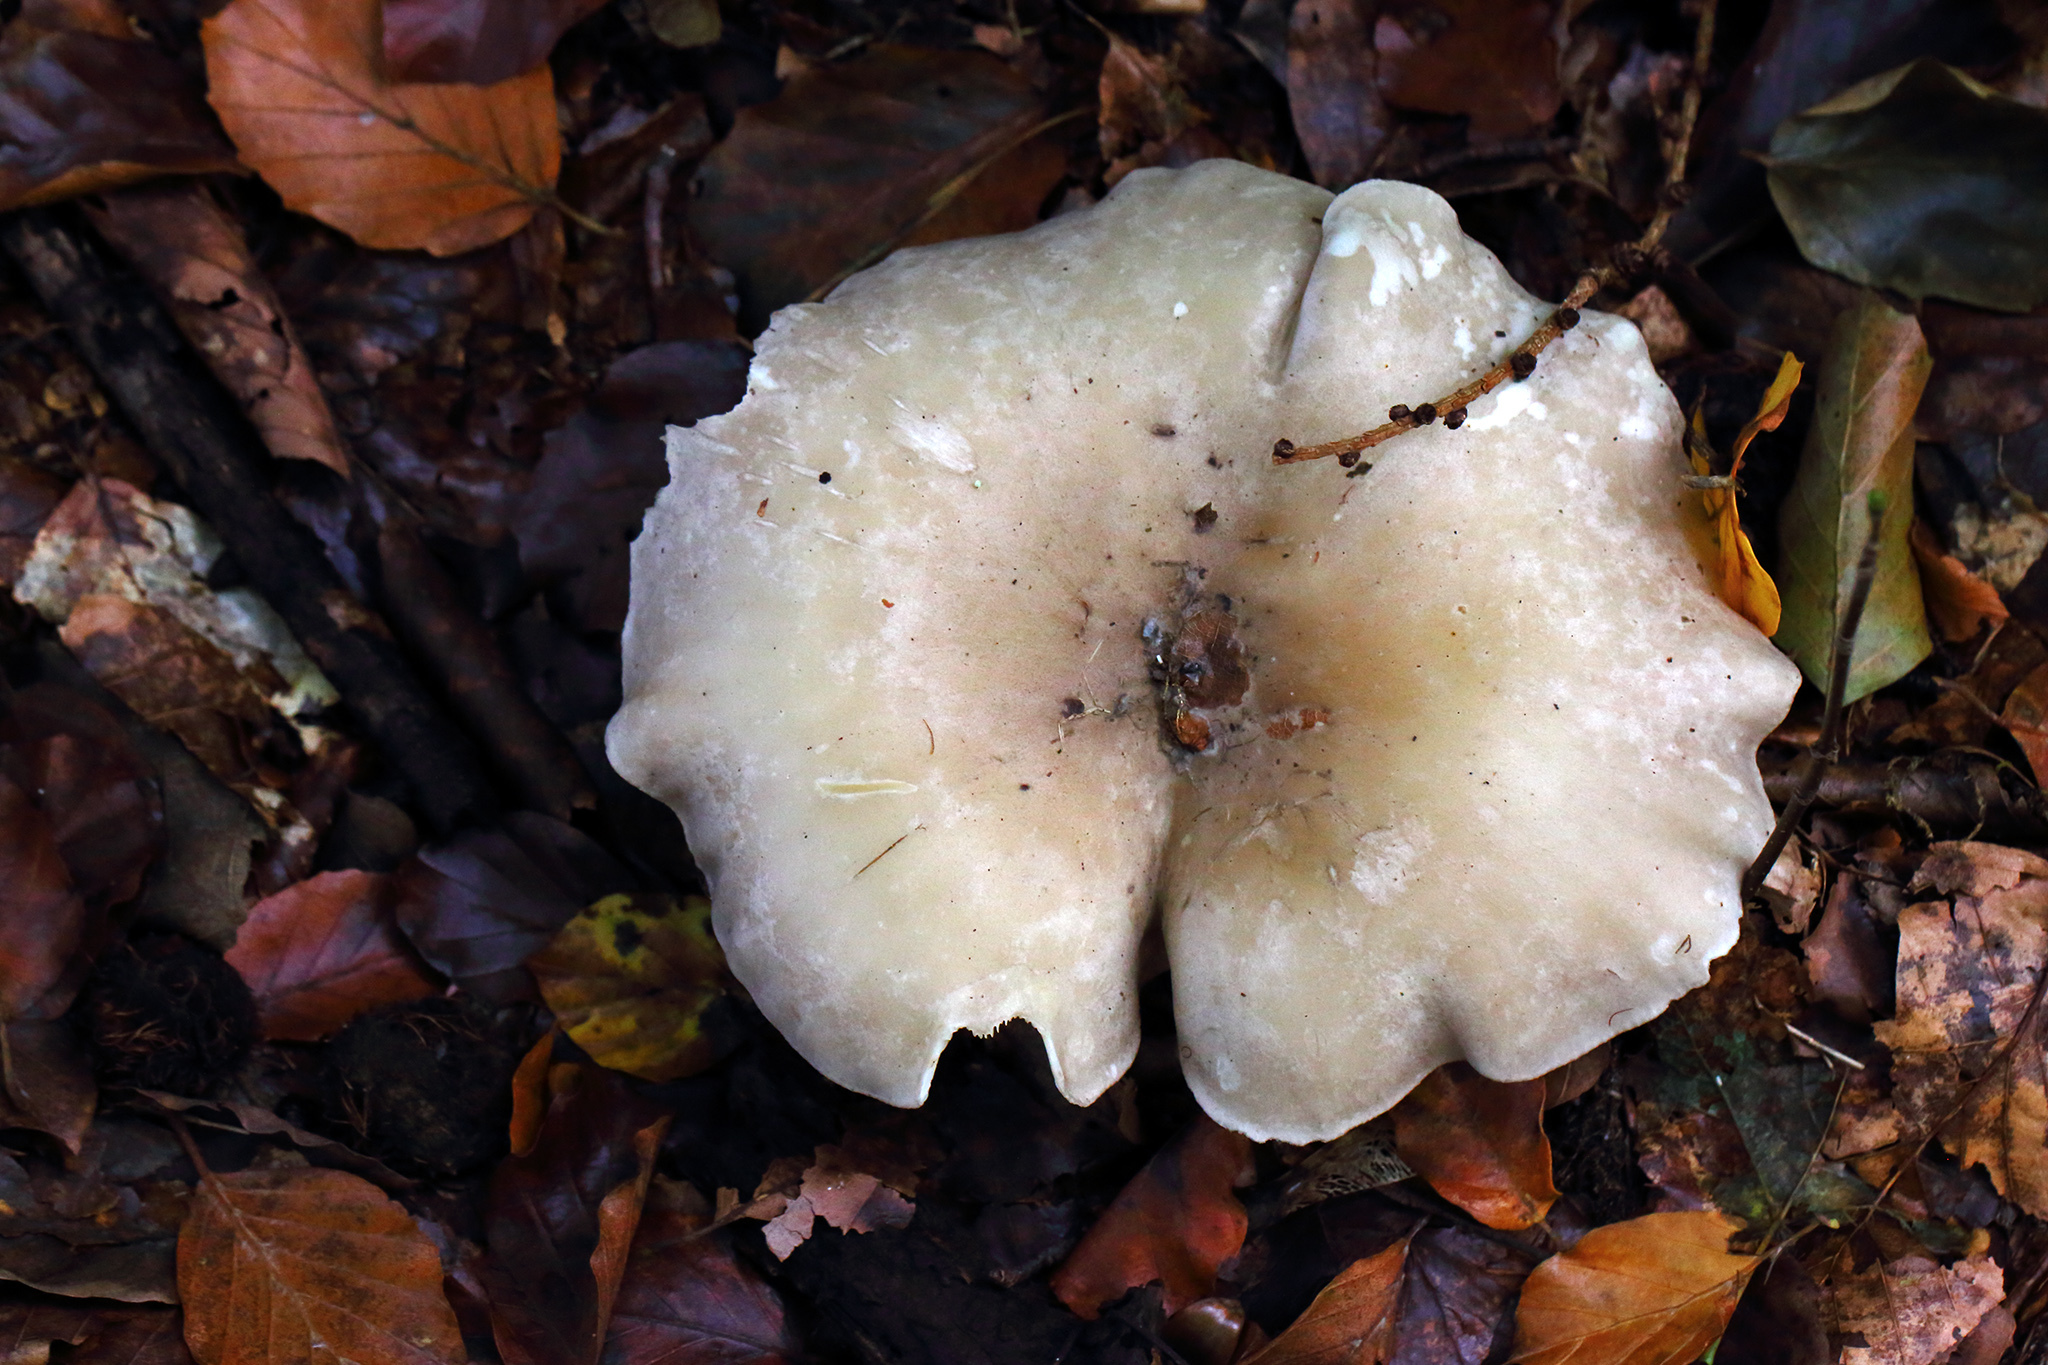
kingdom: Fungi
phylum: Basidiomycota
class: Agaricomycetes
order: Agaricales
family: Tricholomataceae
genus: Clitocybe
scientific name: Clitocybe nebularis
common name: Clouded agaric
